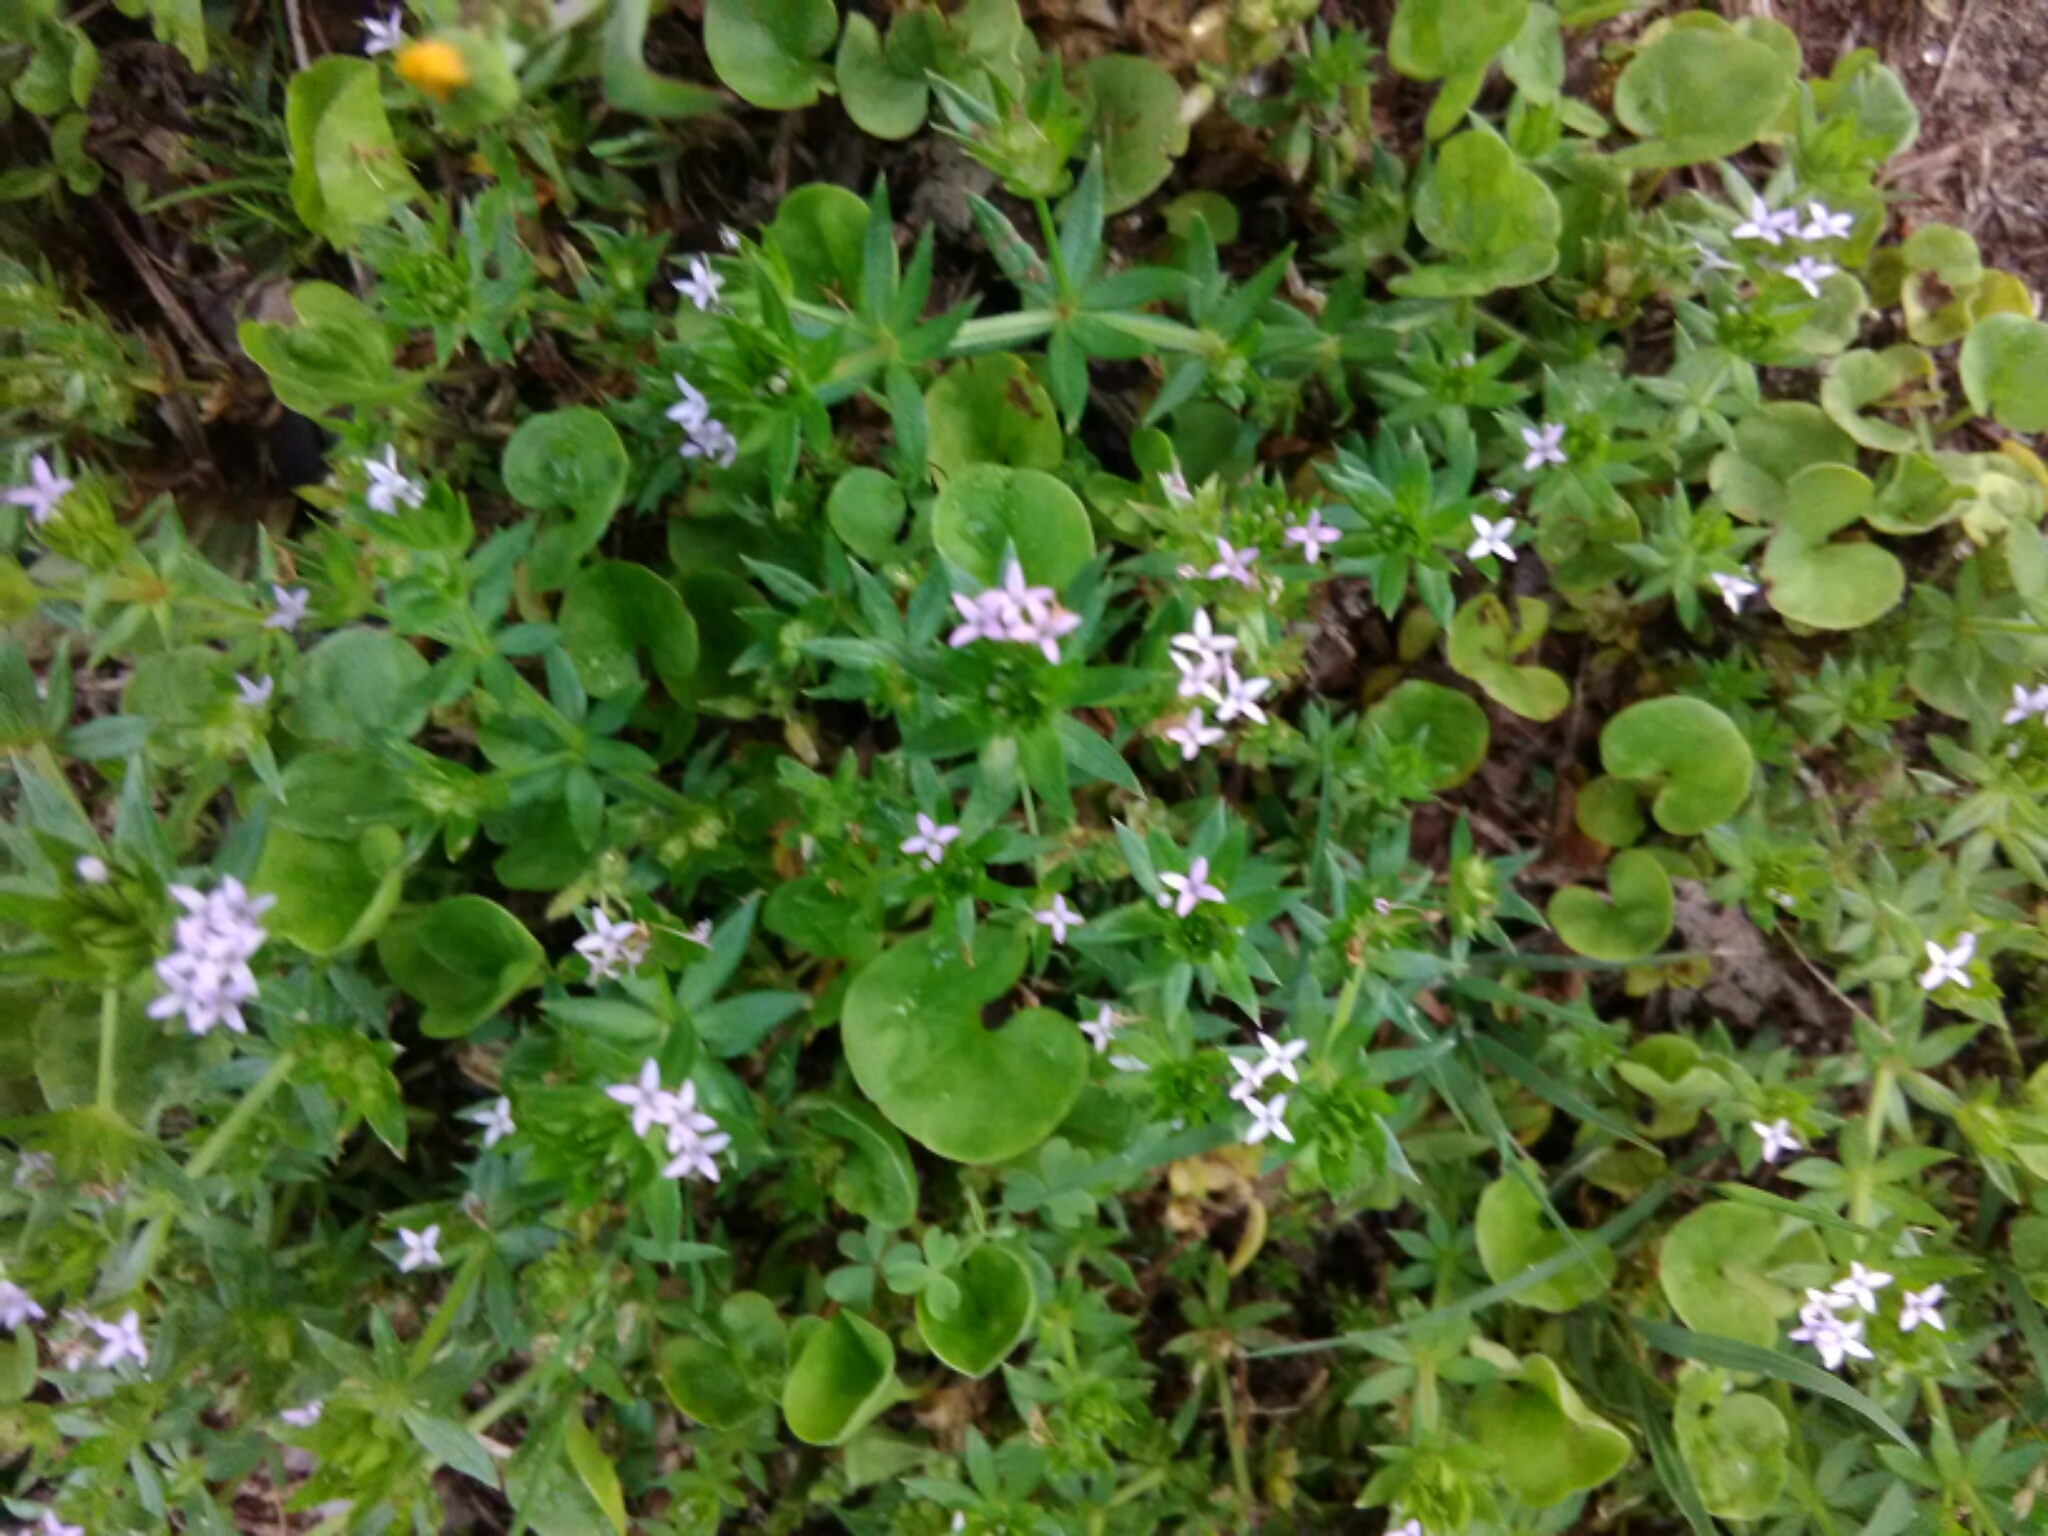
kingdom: Plantae
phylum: Tracheophyta
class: Magnoliopsida
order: Gentianales
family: Rubiaceae
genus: Sherardia
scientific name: Sherardia arvensis
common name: Field madder
